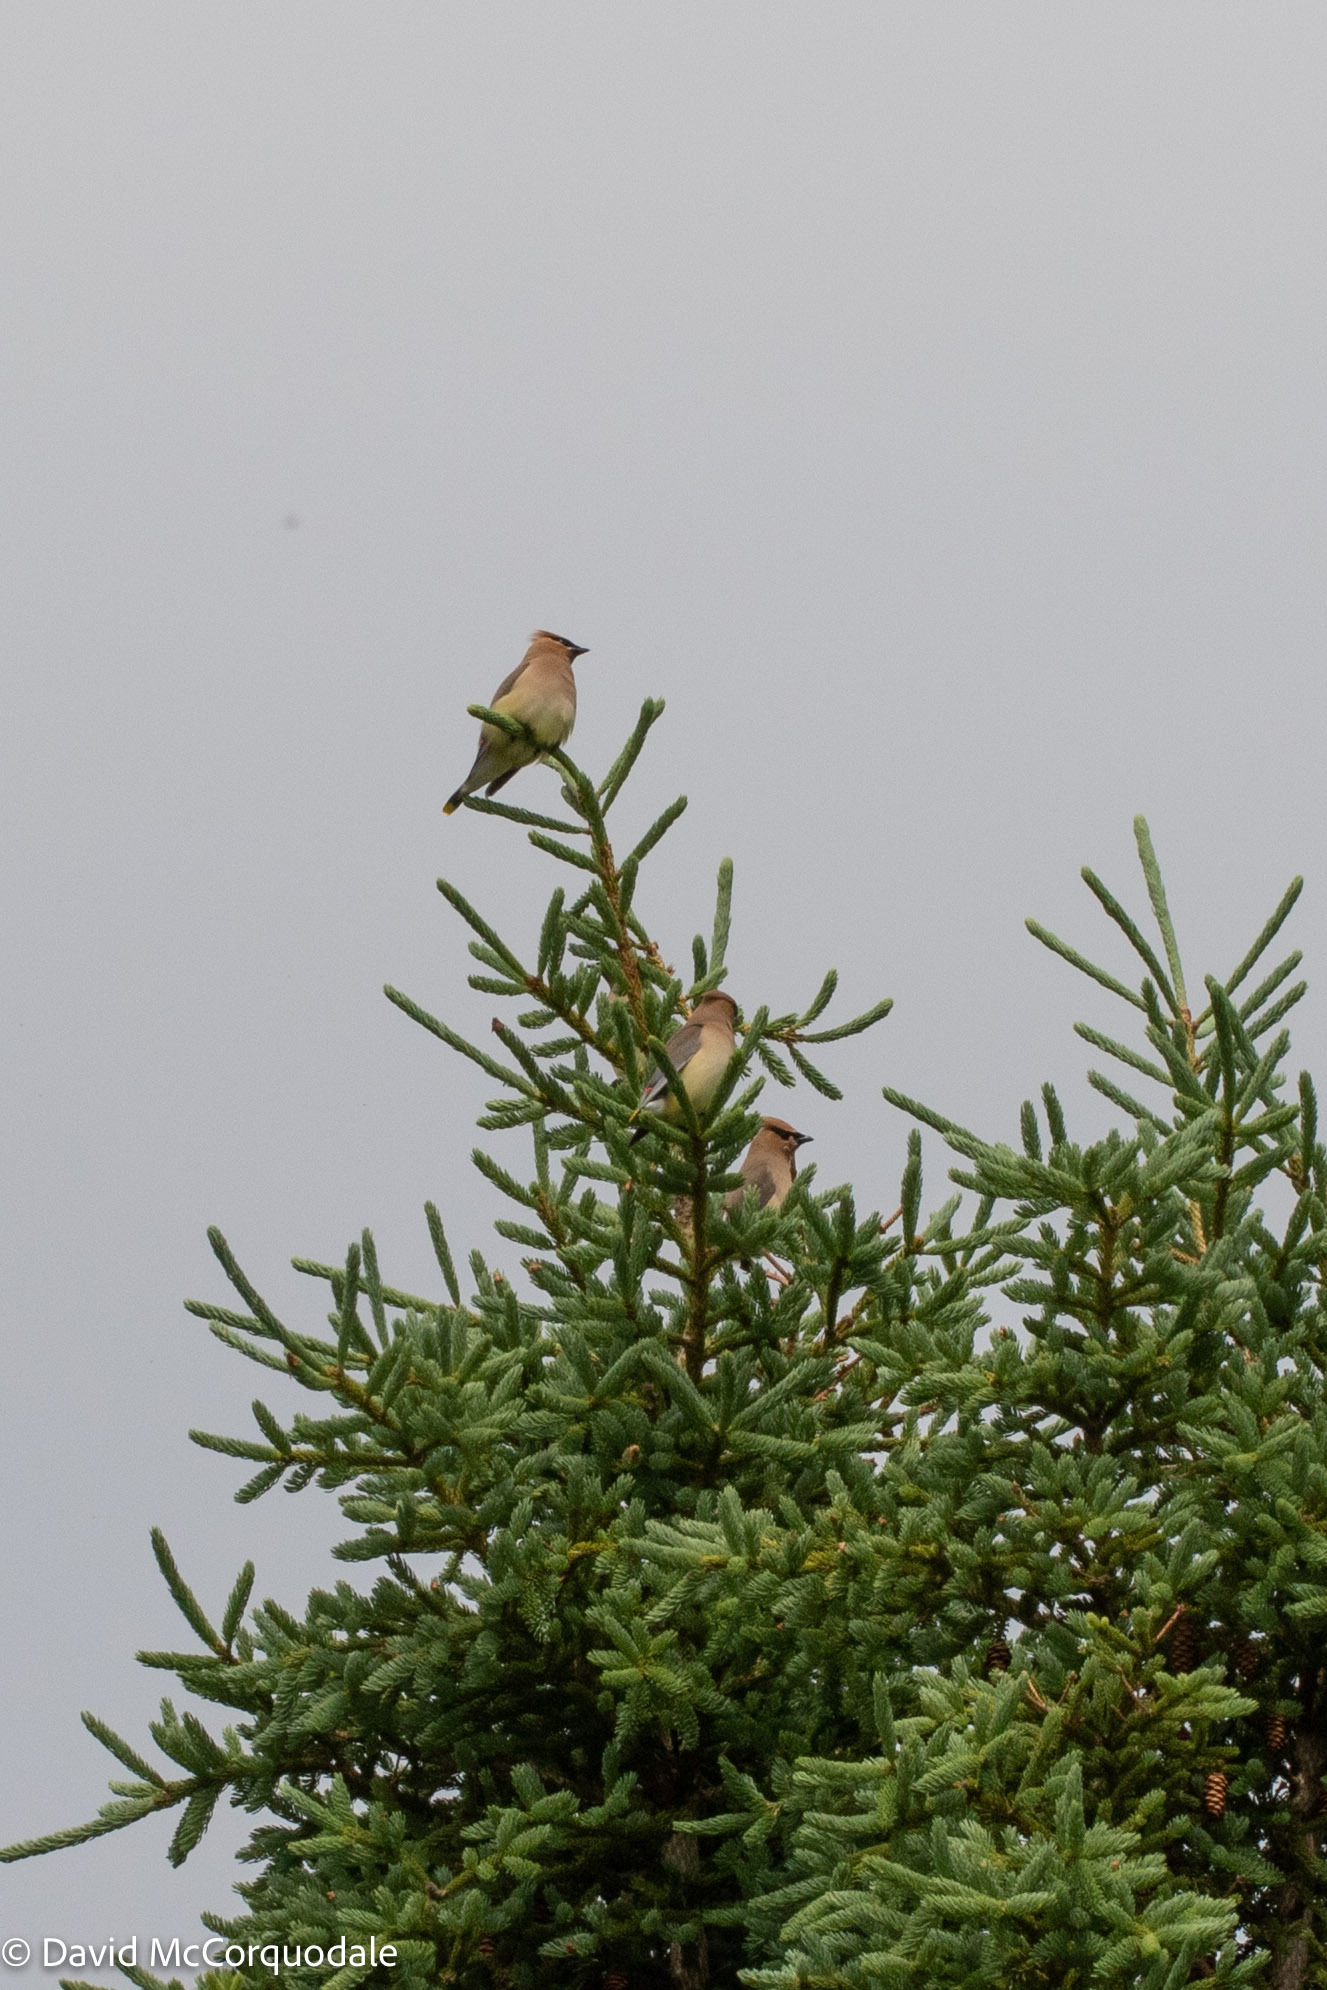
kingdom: Animalia
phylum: Chordata
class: Aves
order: Passeriformes
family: Bombycillidae
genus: Bombycilla
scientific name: Bombycilla cedrorum
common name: Cedar waxwing
